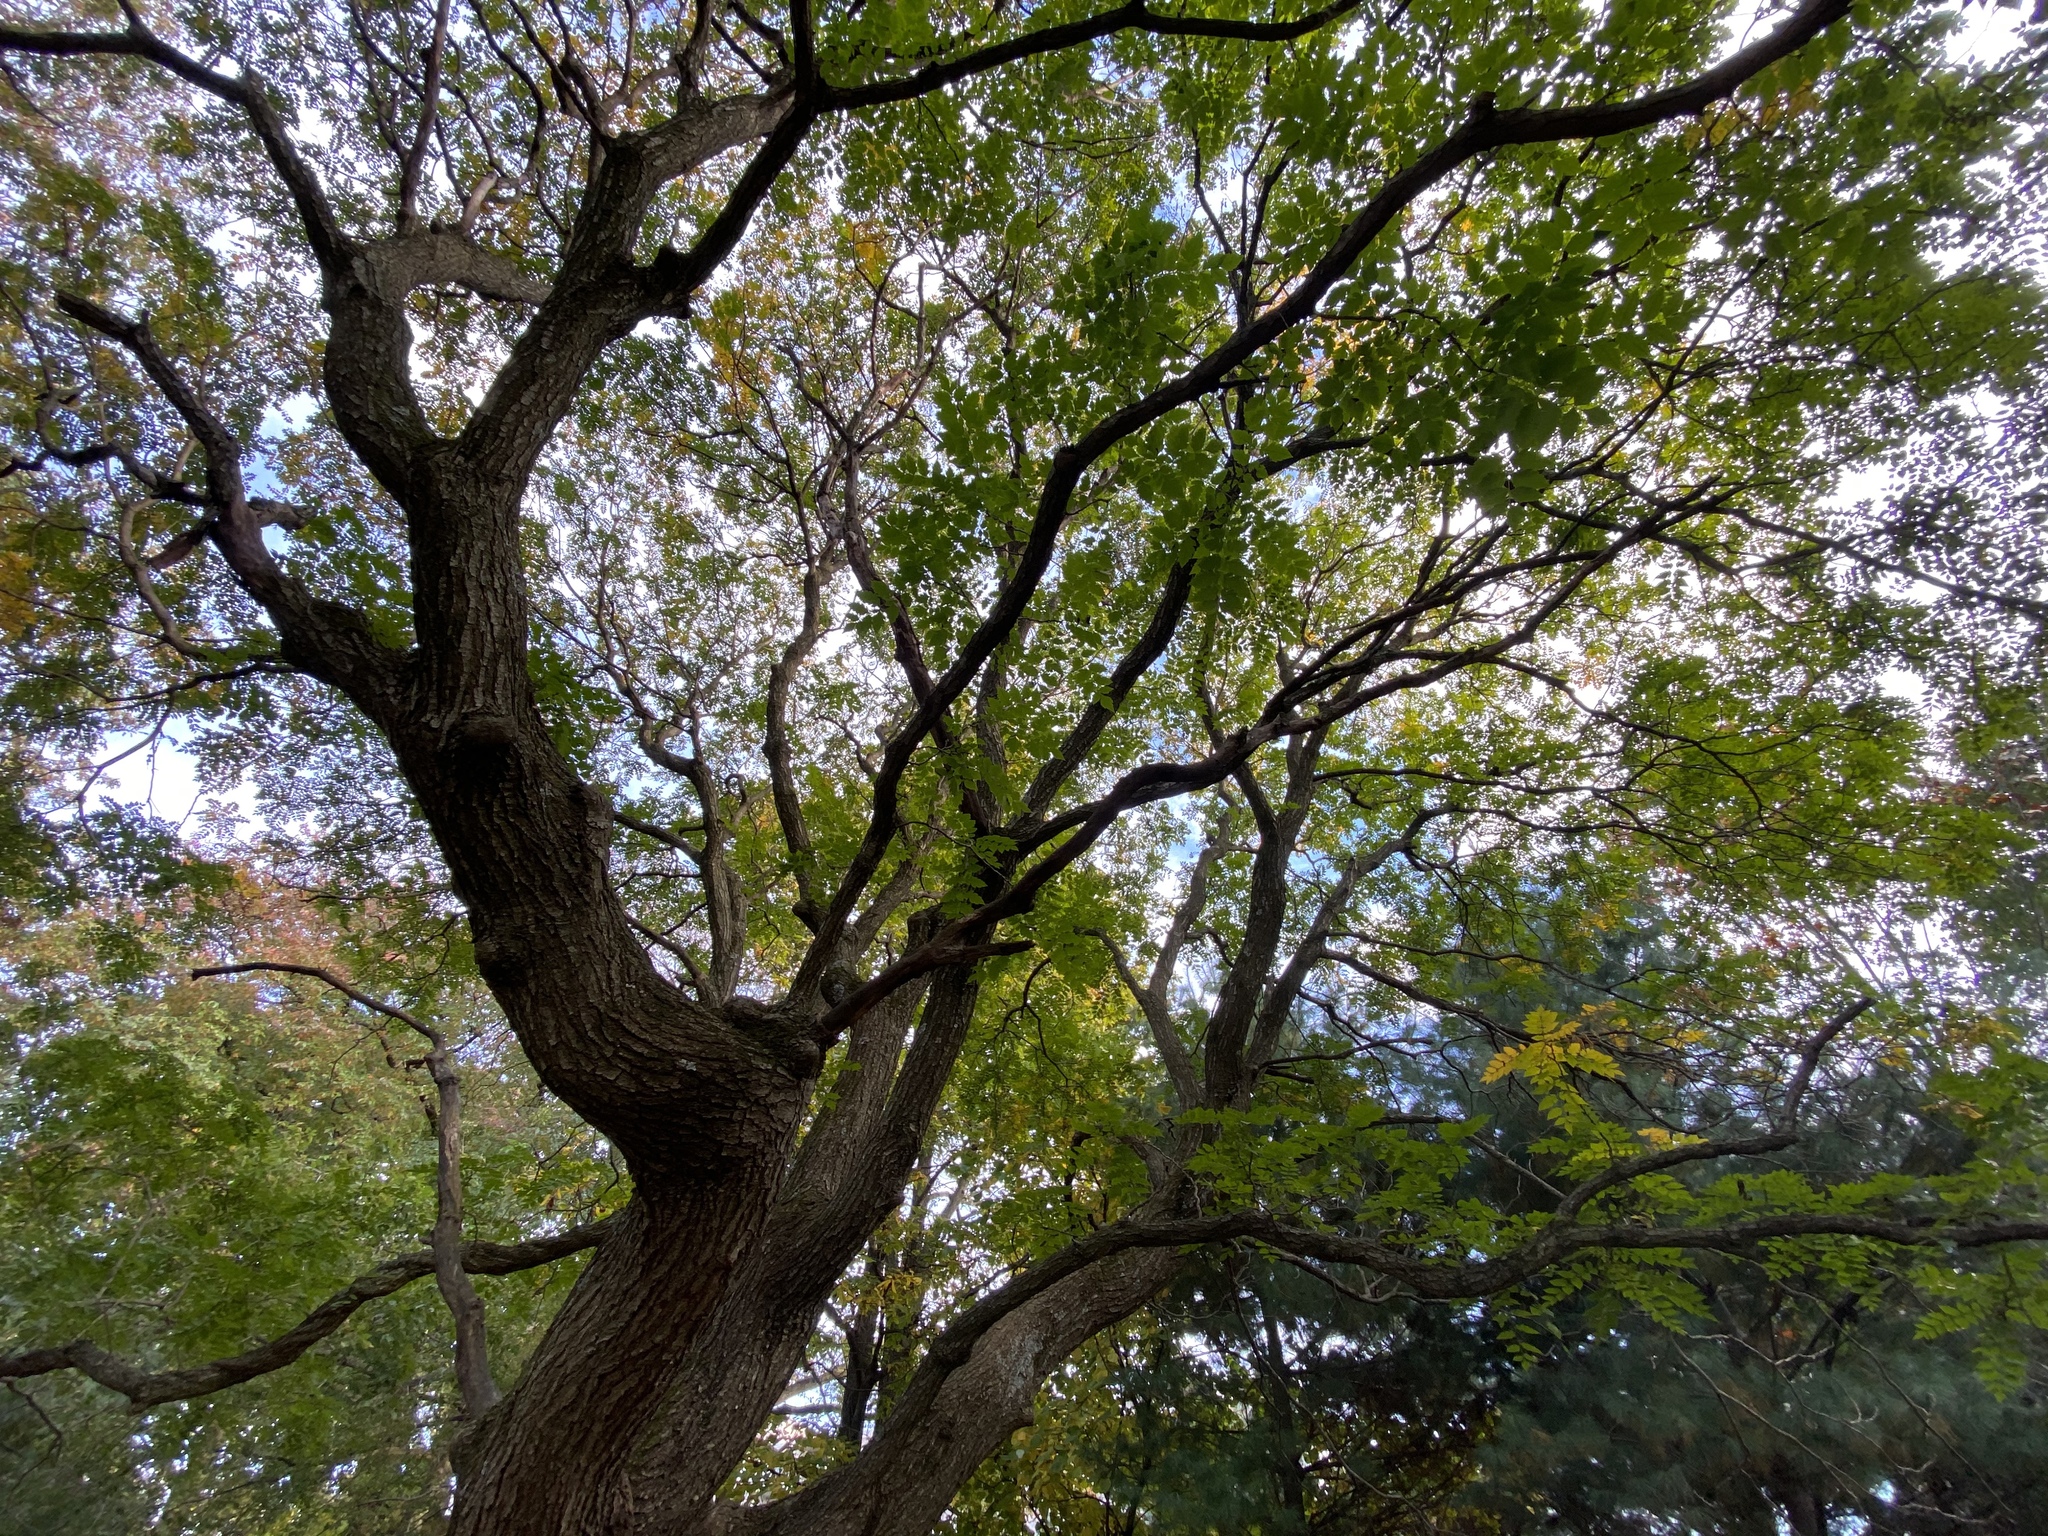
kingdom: Plantae
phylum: Tracheophyta
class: Magnoliopsida
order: Sapindales
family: Sapindaceae
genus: Koelreuteria
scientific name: Koelreuteria paniculata
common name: Pride-of-india
